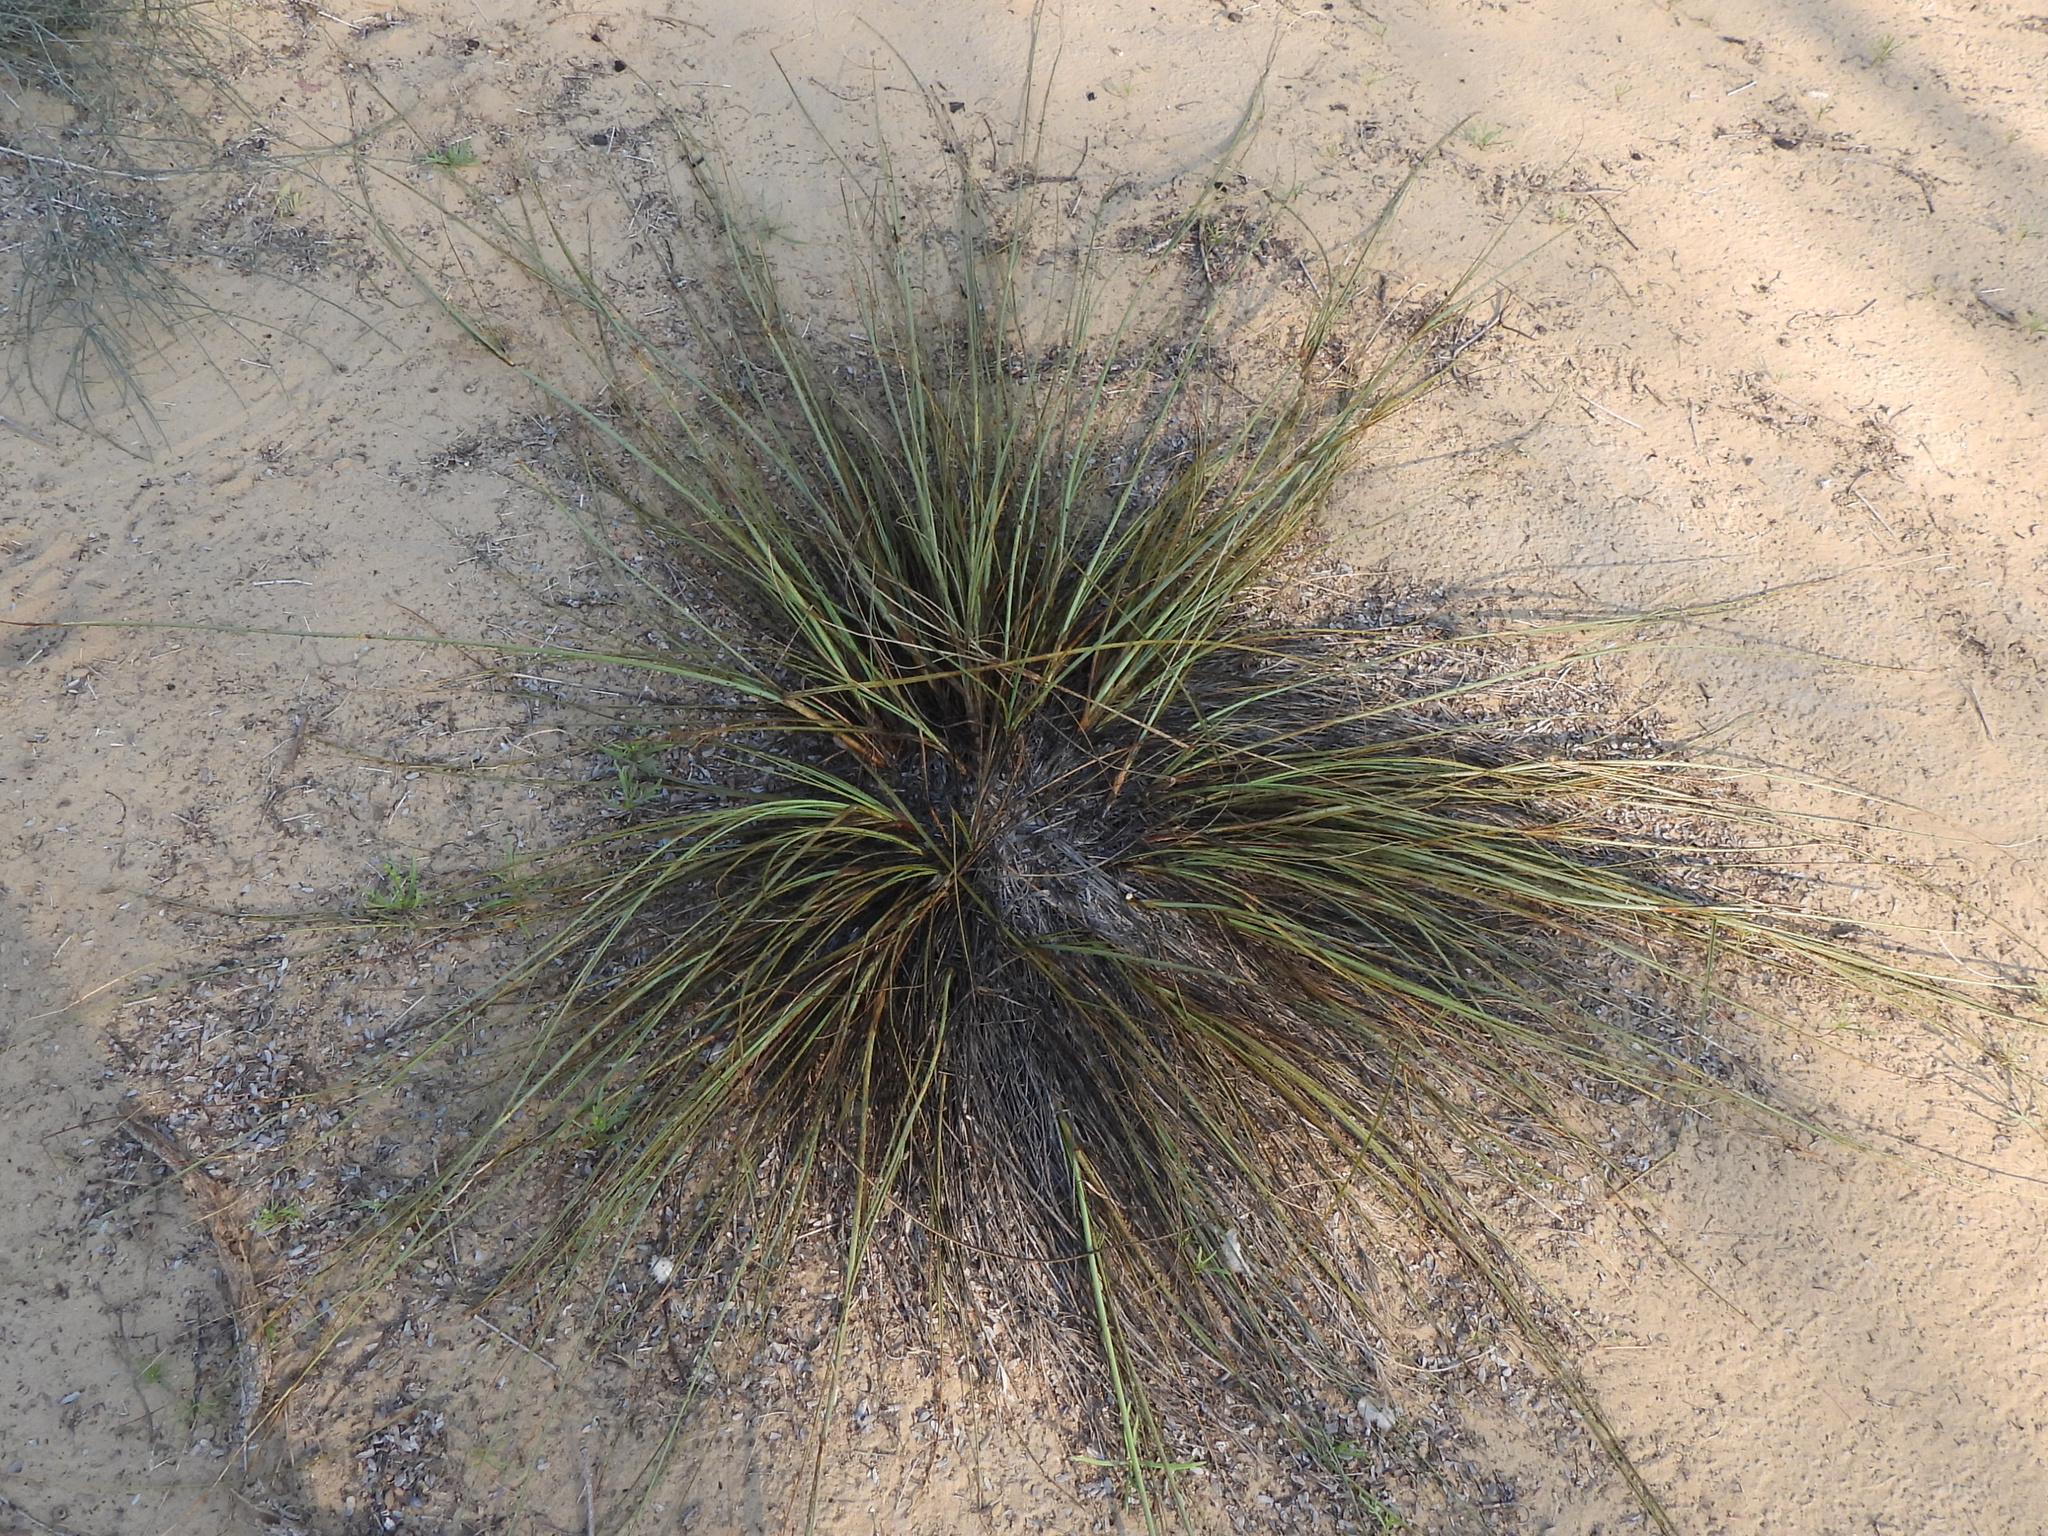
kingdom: Plantae
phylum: Tracheophyta
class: Liliopsida
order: Poales
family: Cyperaceae
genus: Cyperus
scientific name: Cyperus conglomeratus
